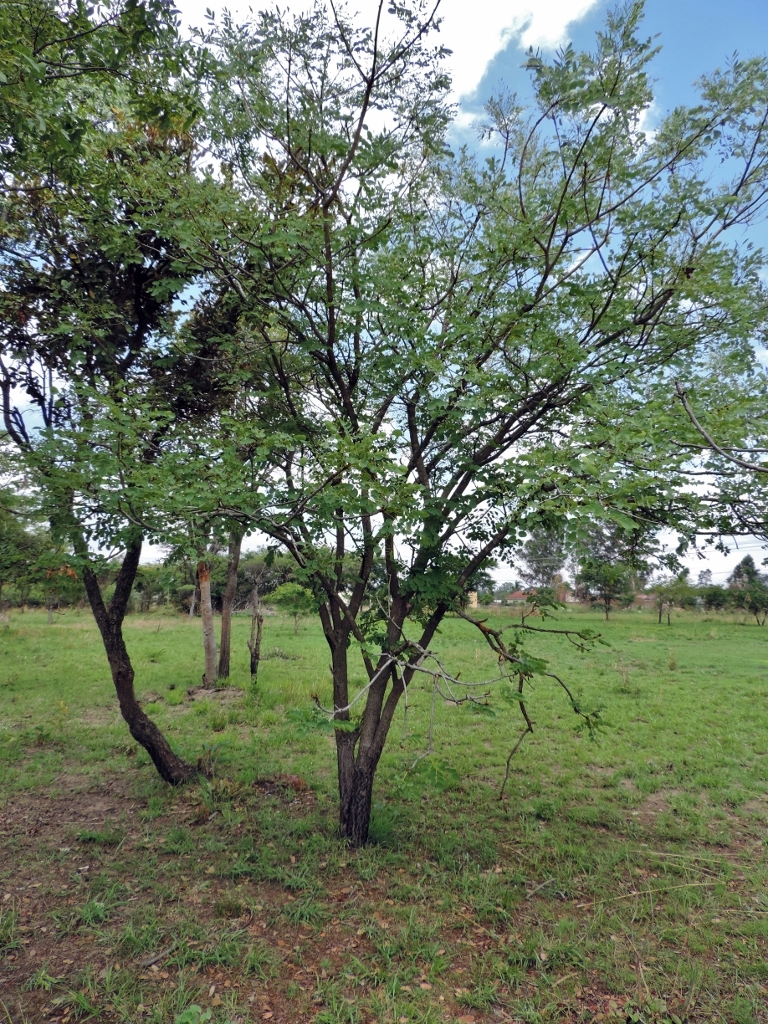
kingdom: Plantae
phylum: Tracheophyta
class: Magnoliopsida
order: Fabales
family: Fabaceae
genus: Burkea
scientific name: Burkea africana
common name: Mkalati tree
